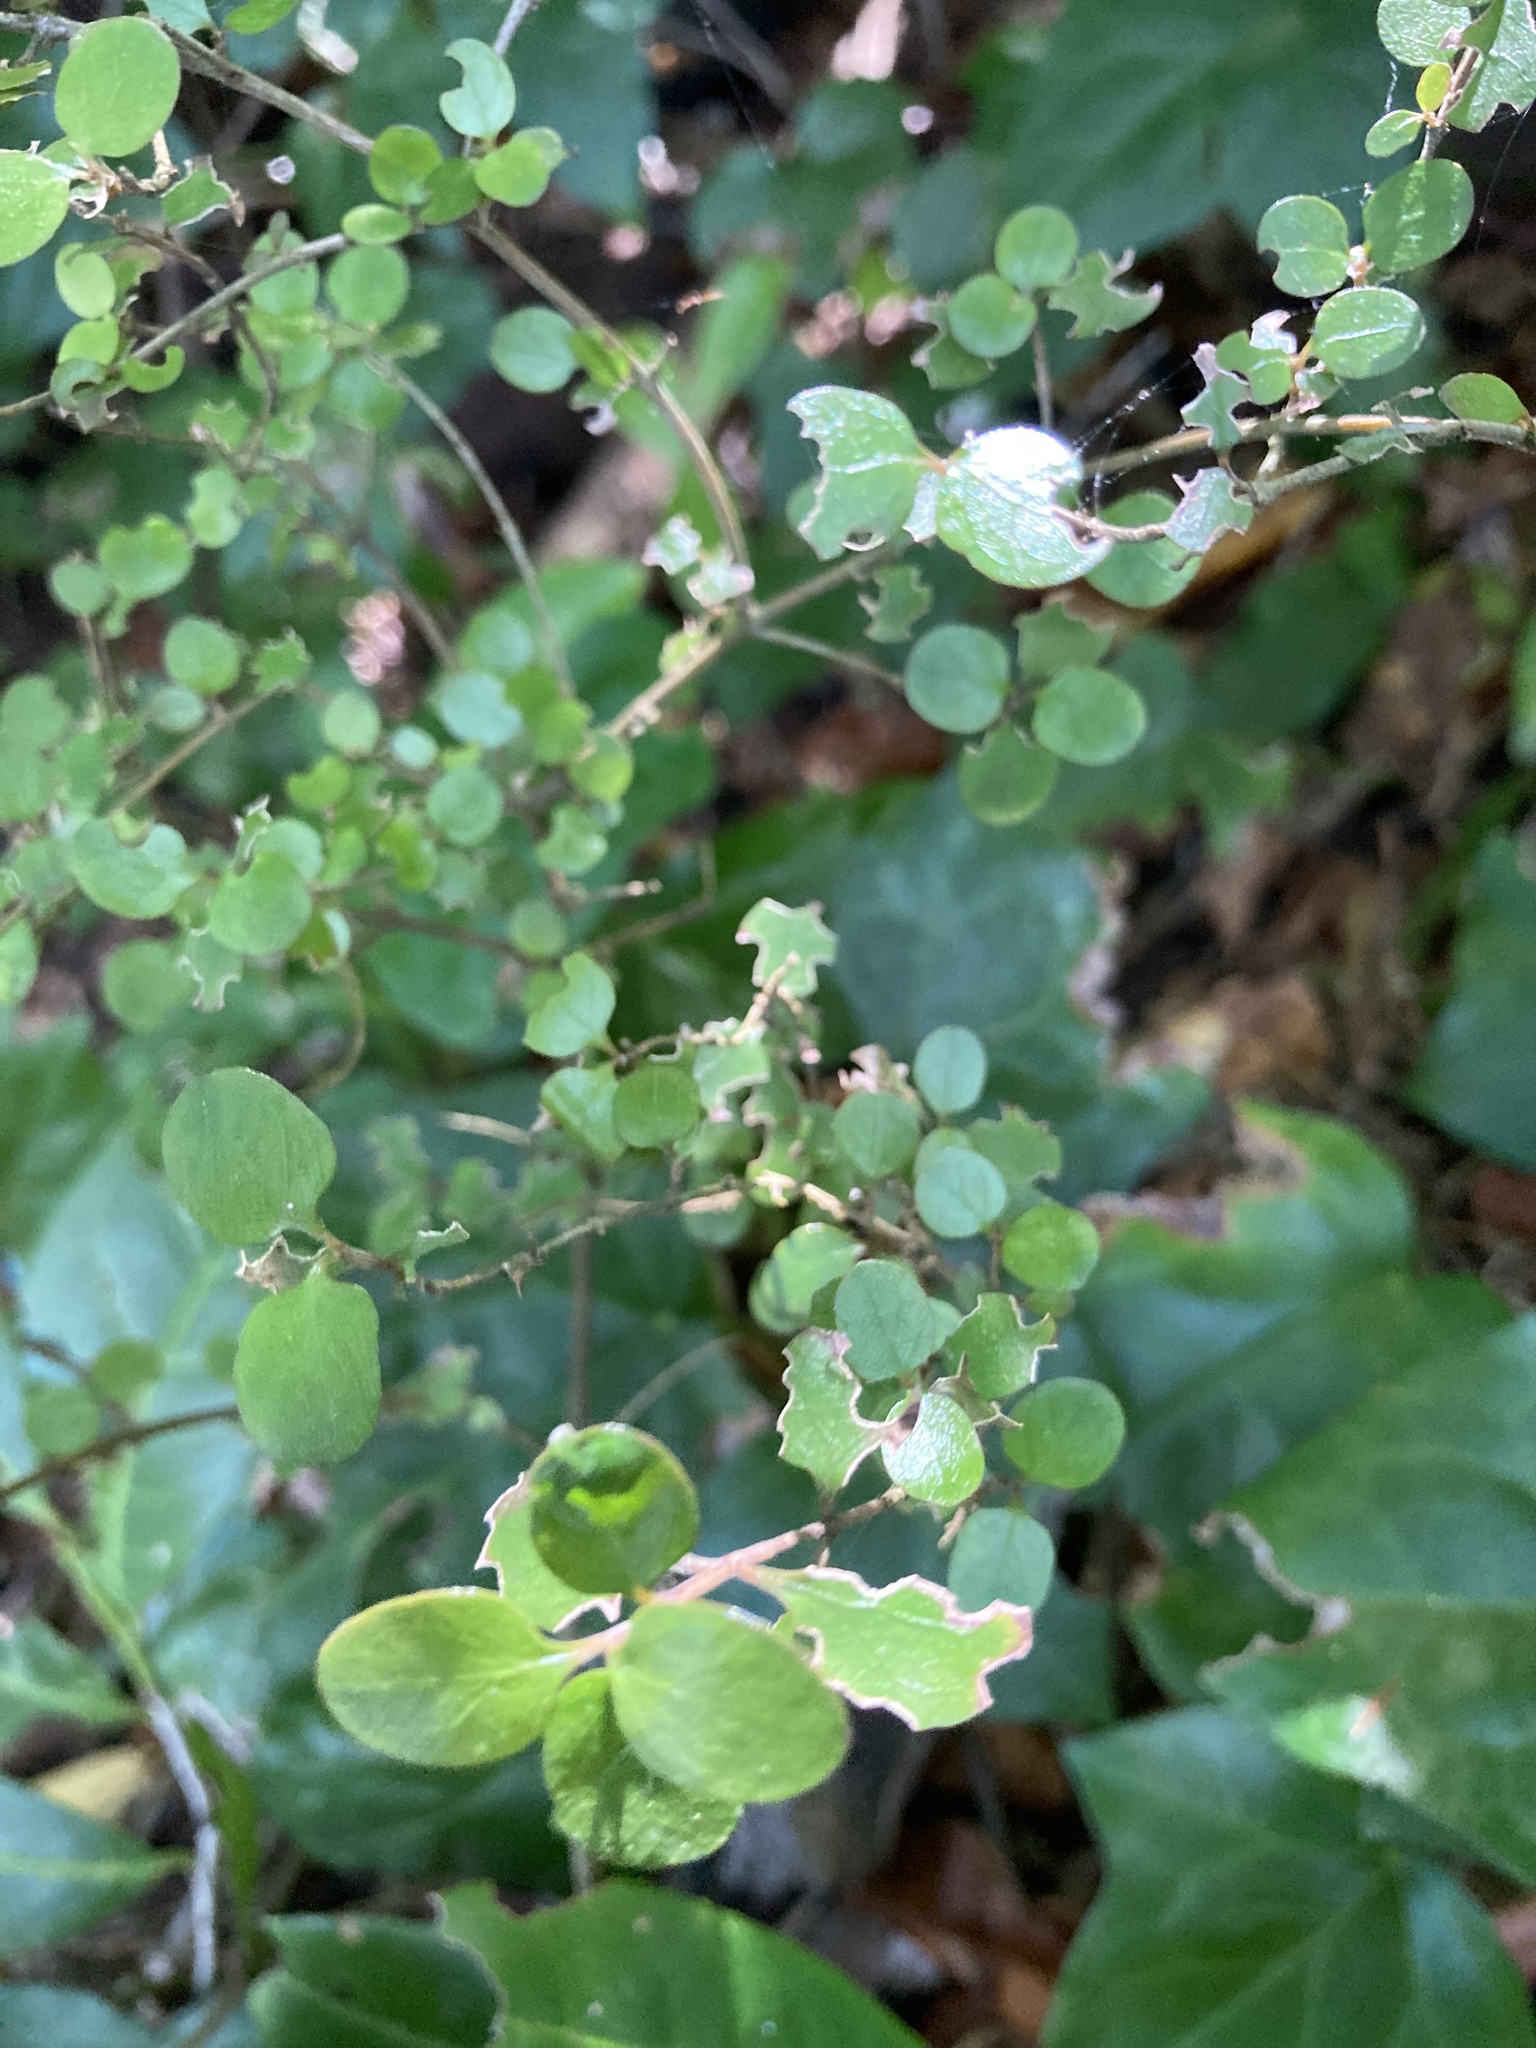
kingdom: Plantae
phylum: Tracheophyta
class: Magnoliopsida
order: Gentianales
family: Rubiaceae
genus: Coprosma
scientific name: Coprosma rhamnoides
